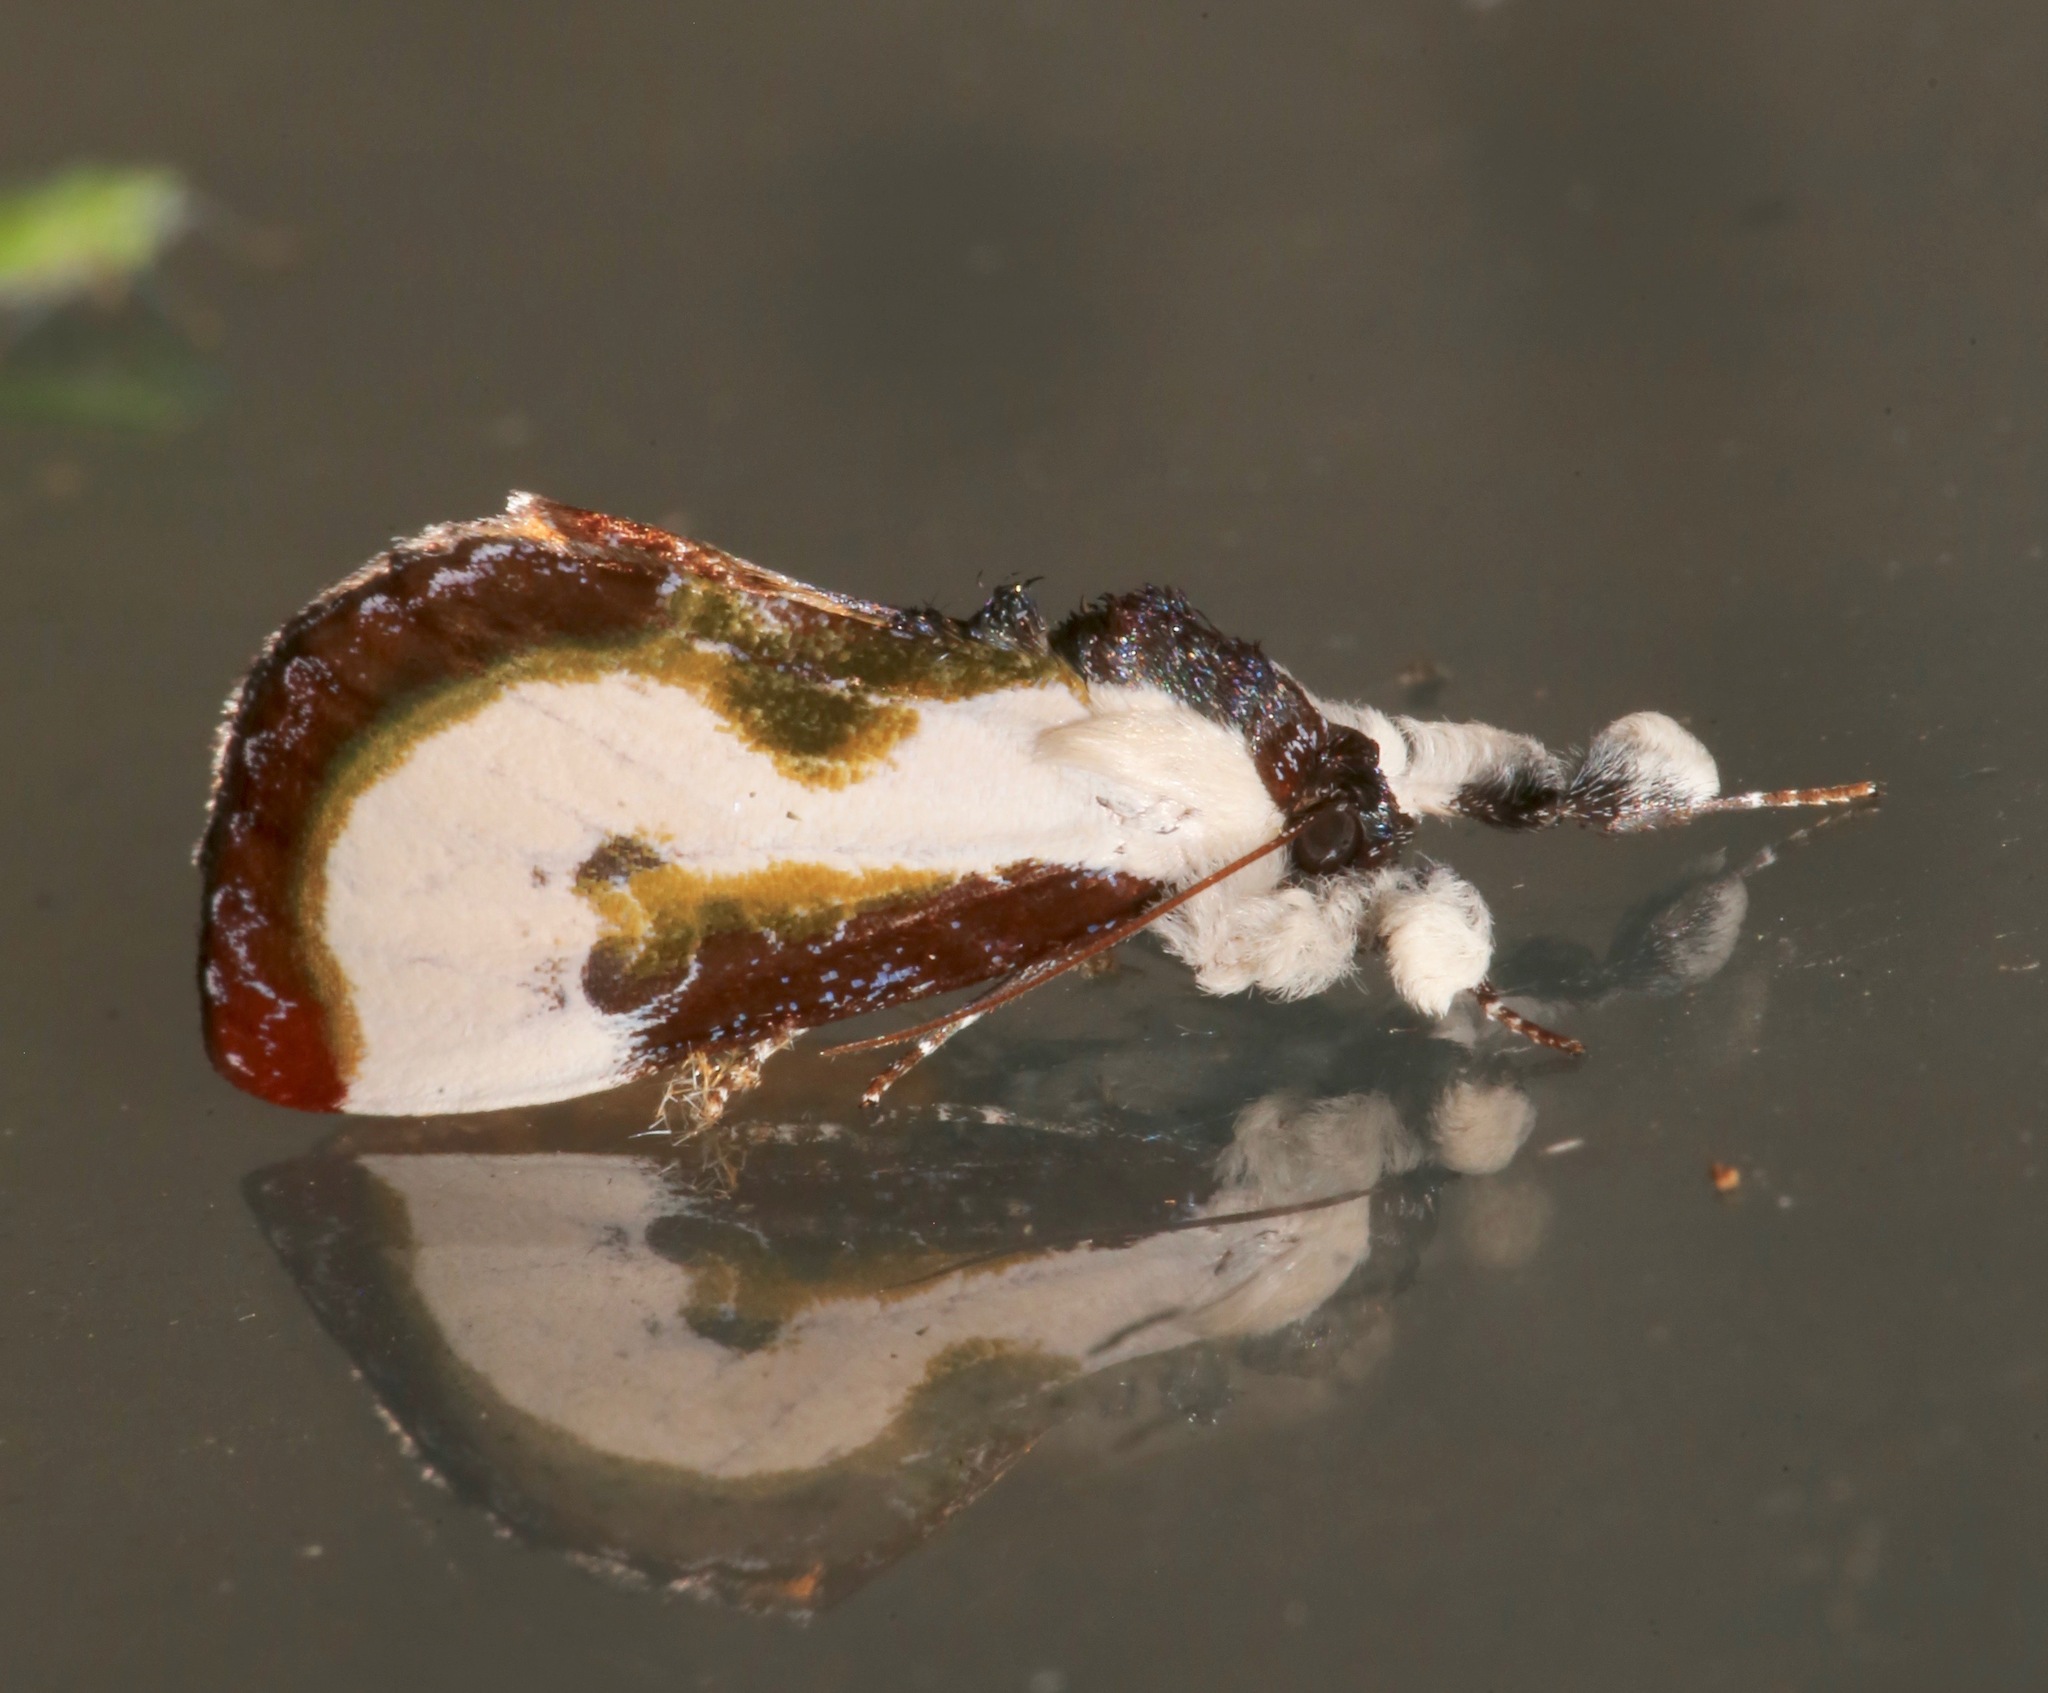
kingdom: Animalia
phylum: Arthropoda
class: Insecta
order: Lepidoptera
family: Noctuidae
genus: Eudryas
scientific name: Eudryas grata
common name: Beautiful wood-nymph
